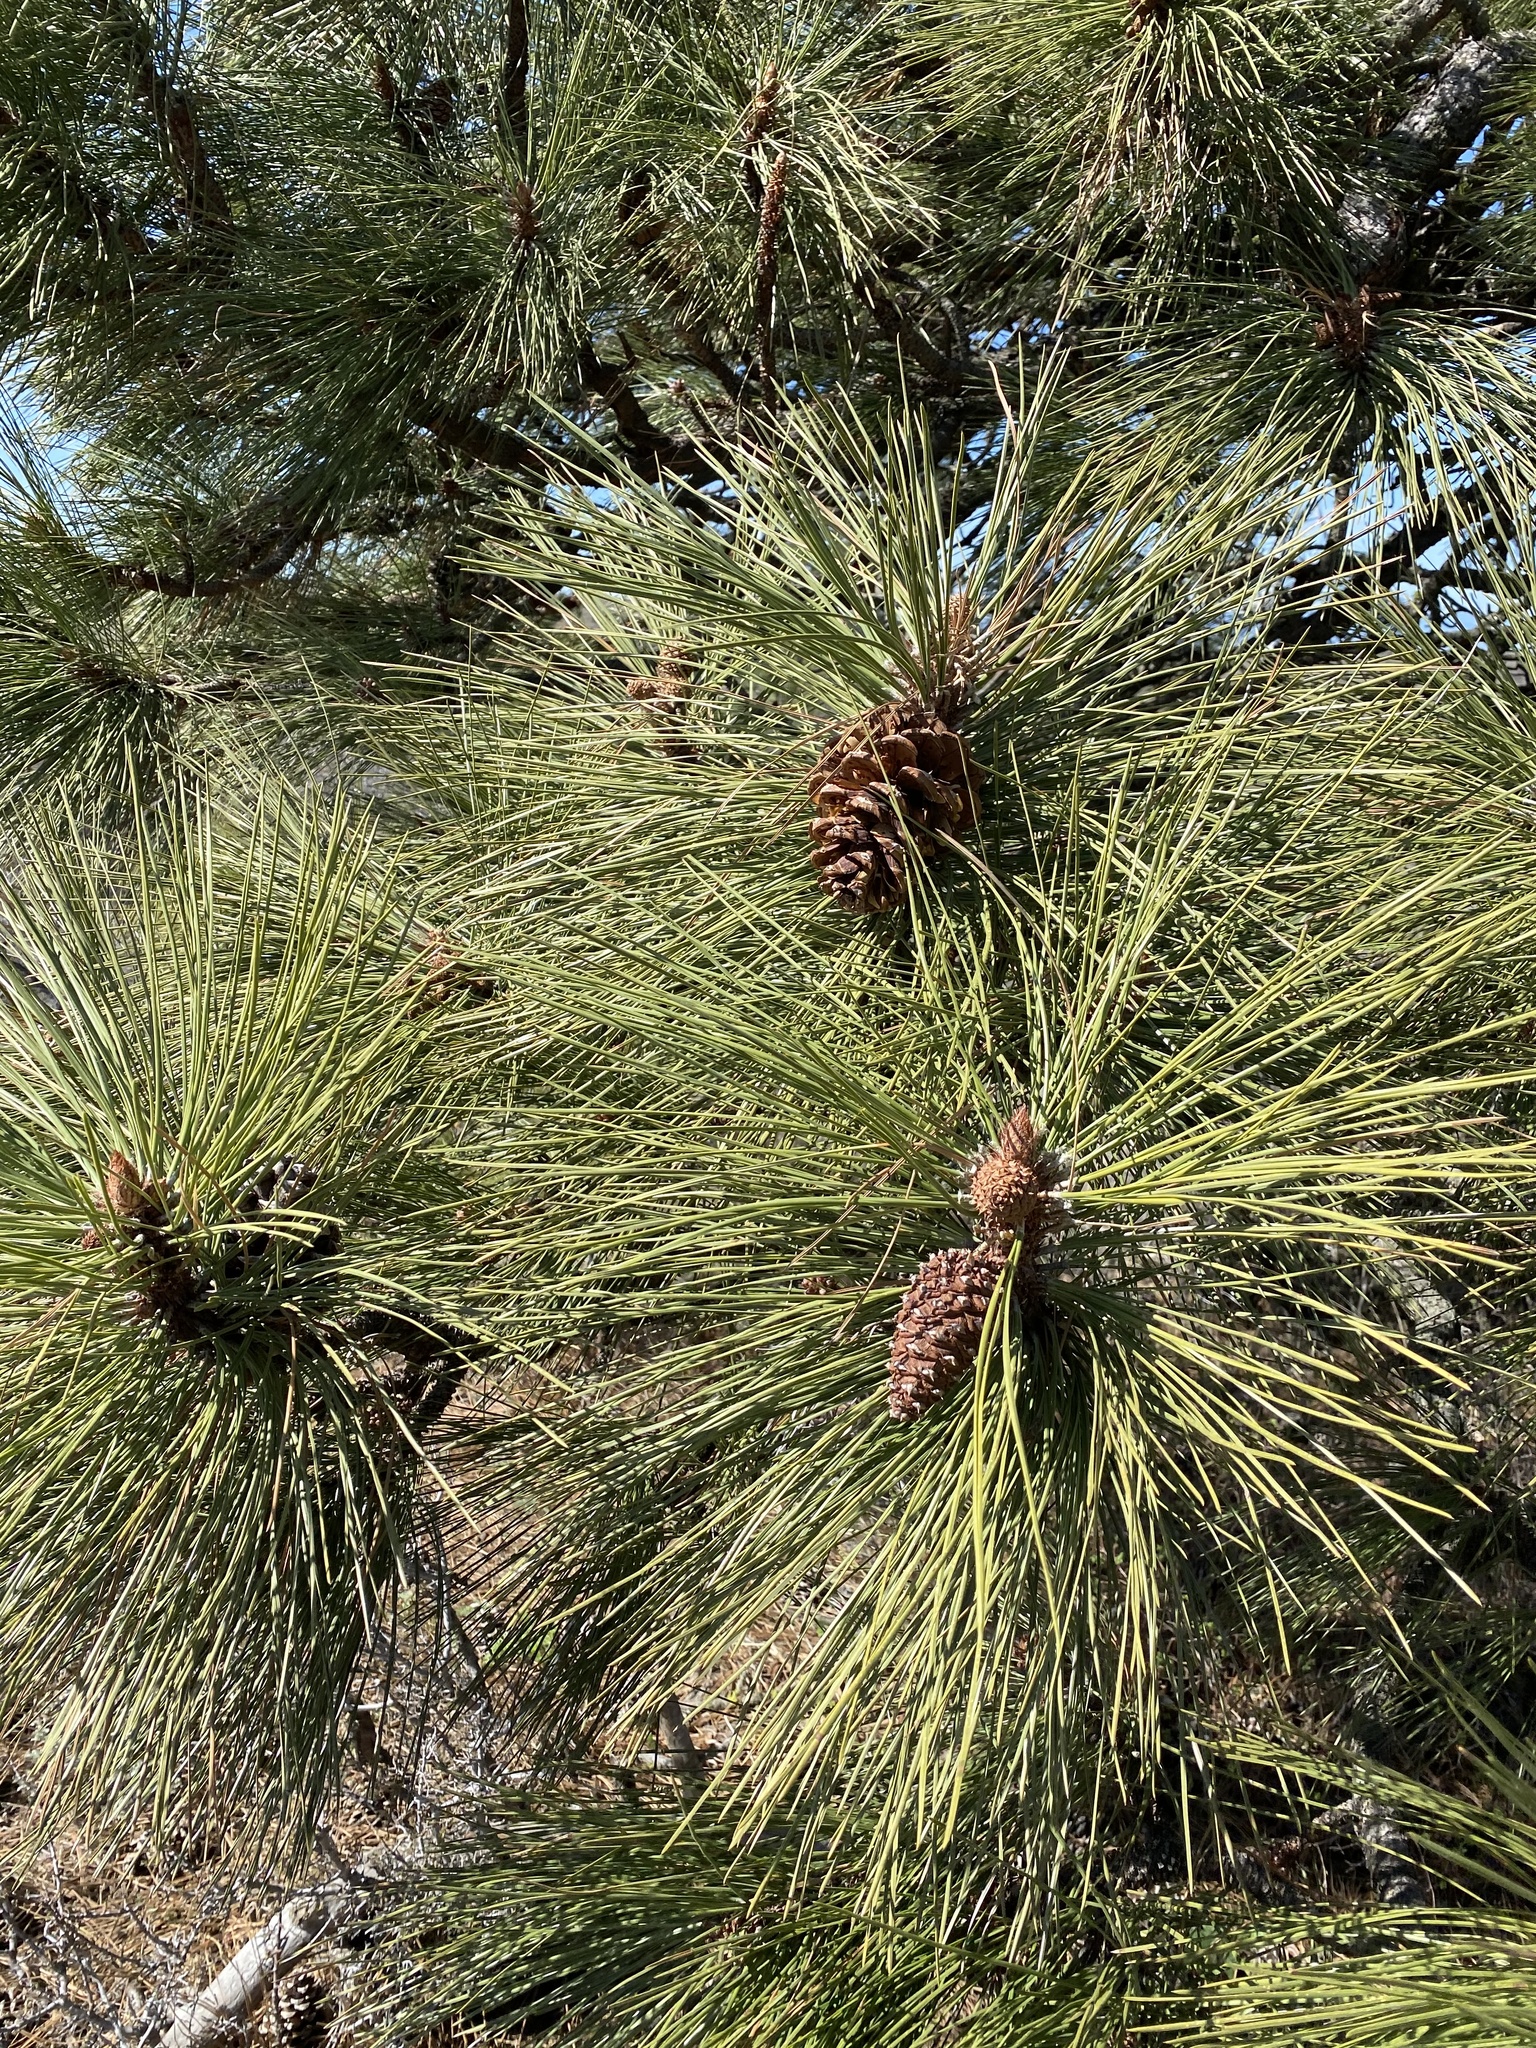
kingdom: Plantae
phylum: Tracheophyta
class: Pinopsida
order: Pinales
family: Pinaceae
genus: Pinus
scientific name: Pinus ponderosa
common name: Western yellow-pine
